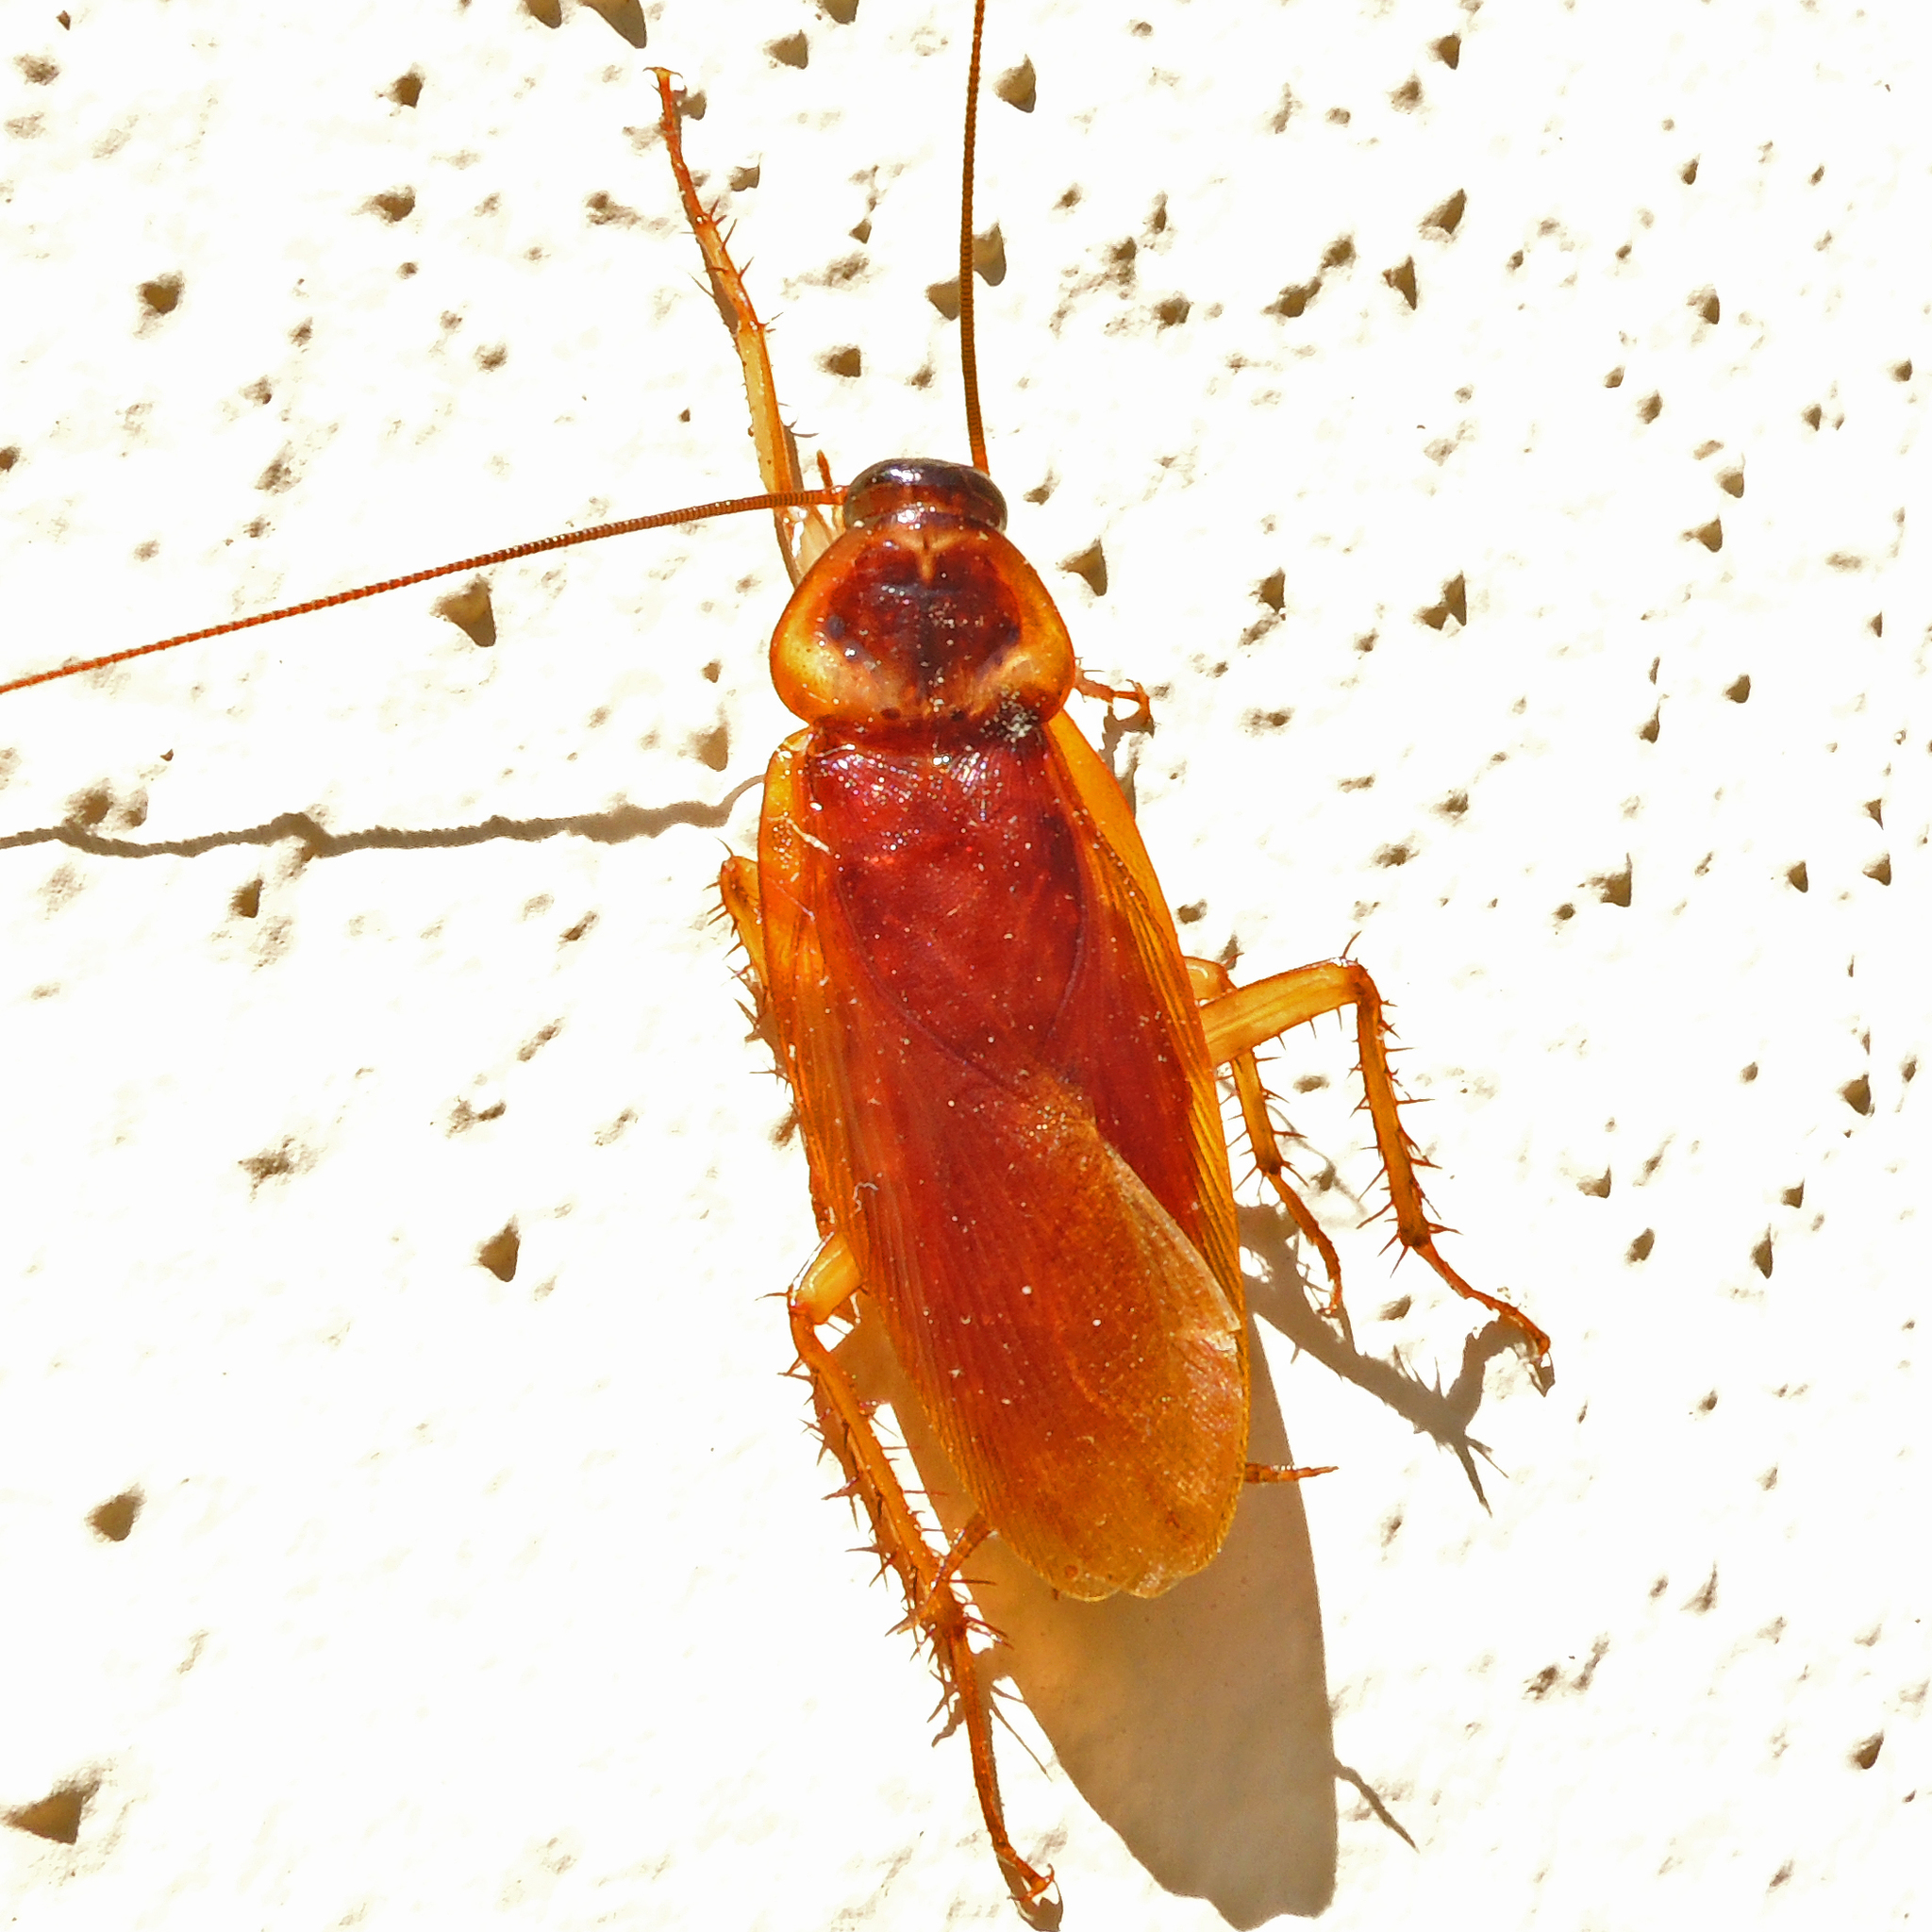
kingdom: Animalia
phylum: Arthropoda
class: Insecta
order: Blattodea
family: Blattidae
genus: Periplaneta
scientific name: Periplaneta americana
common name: American cockroach
